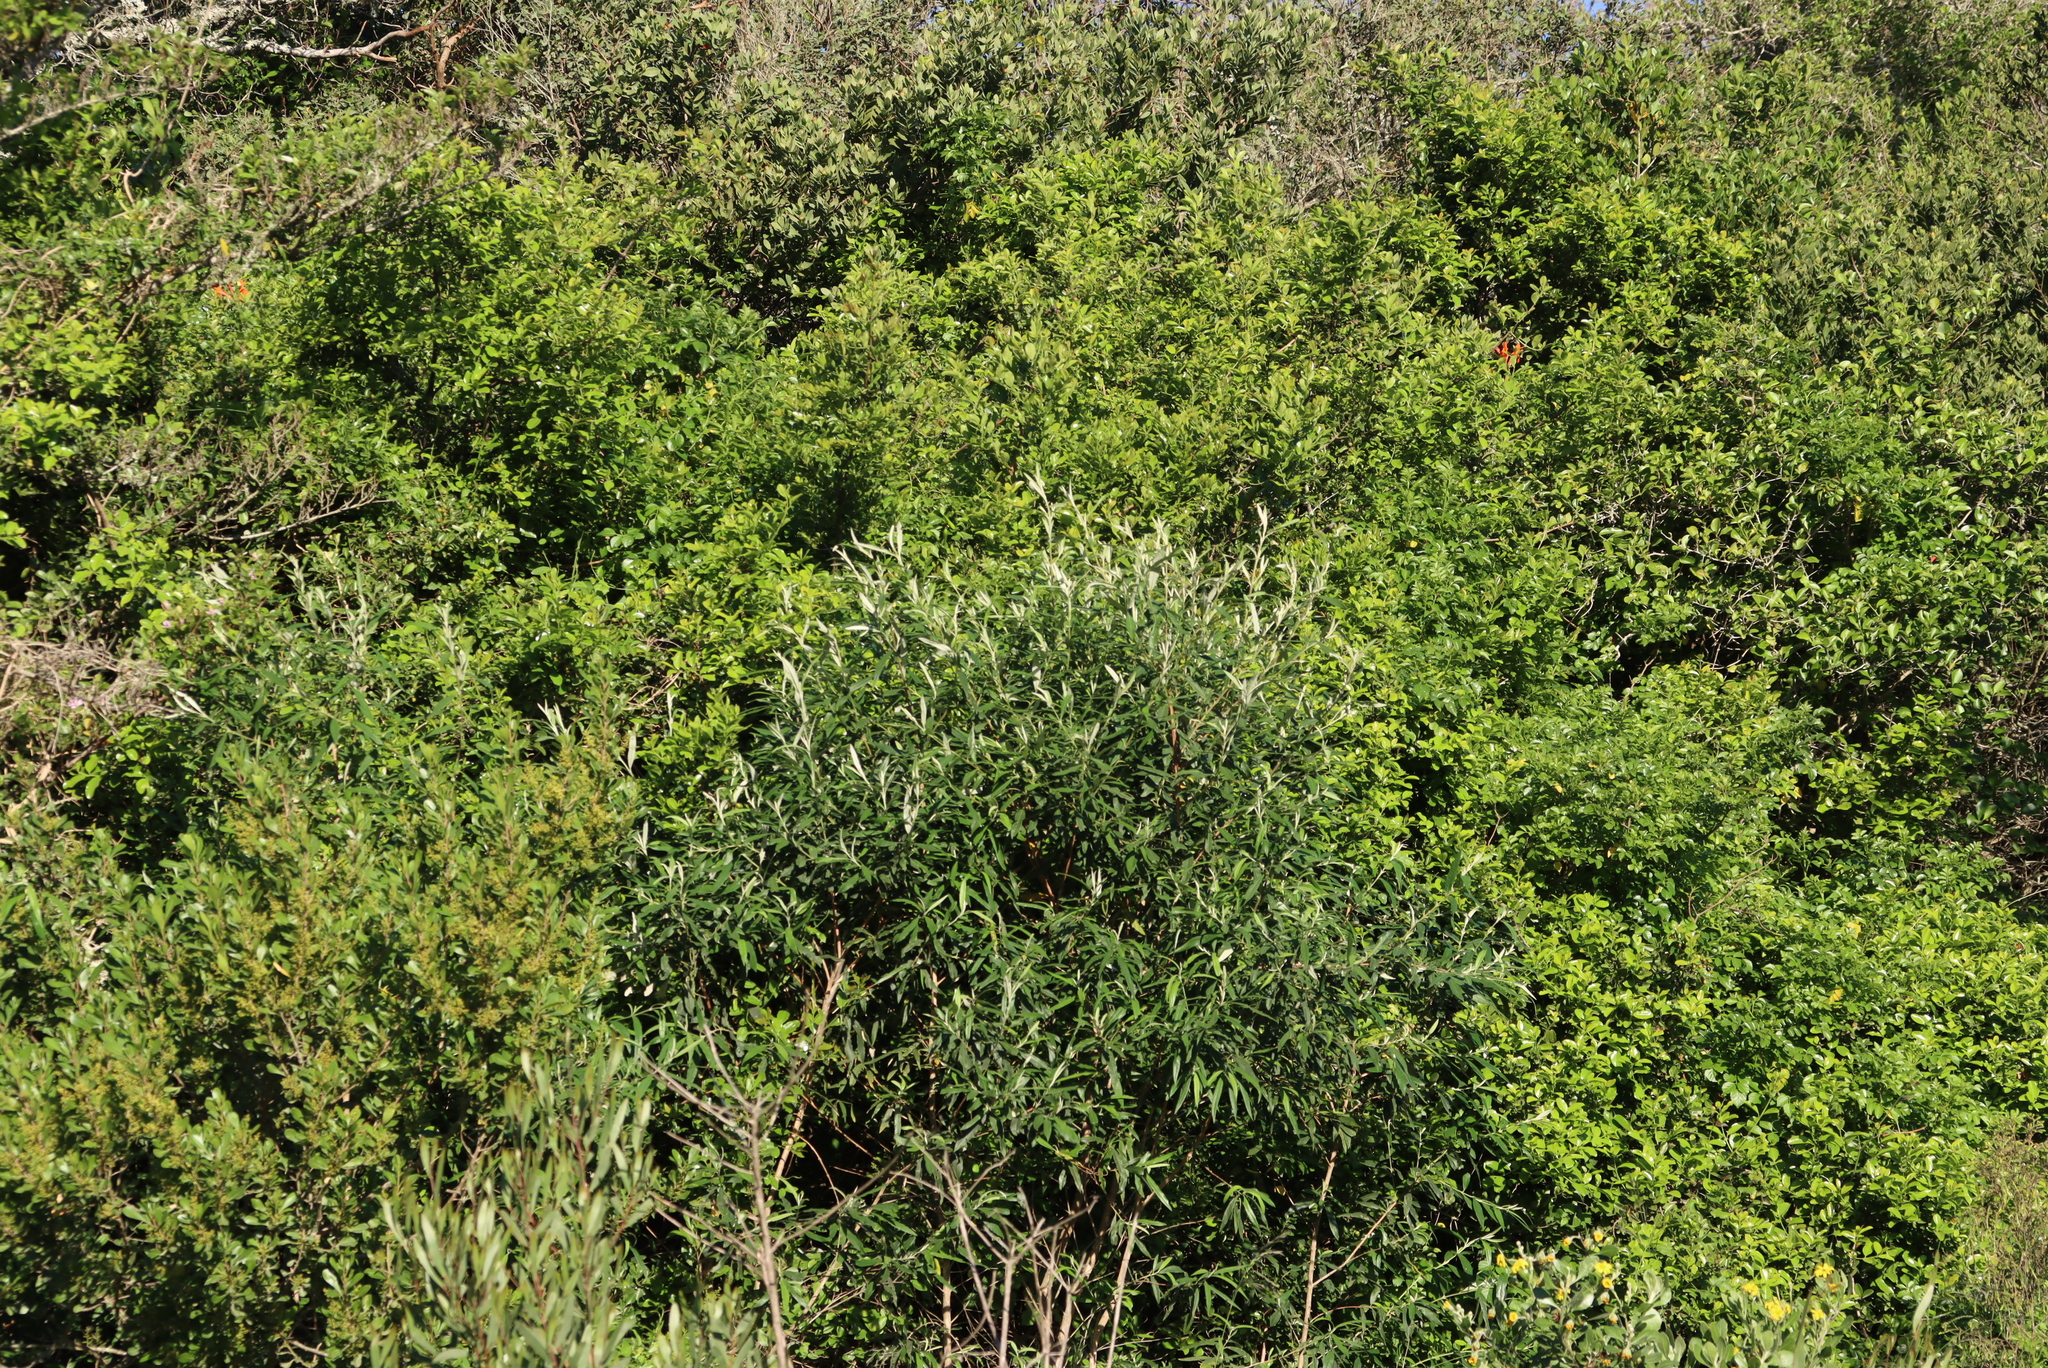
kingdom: Plantae
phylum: Tracheophyta
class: Magnoliopsida
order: Lamiales
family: Scrophulariaceae
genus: Buddleja
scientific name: Buddleja saligna
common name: False olive
